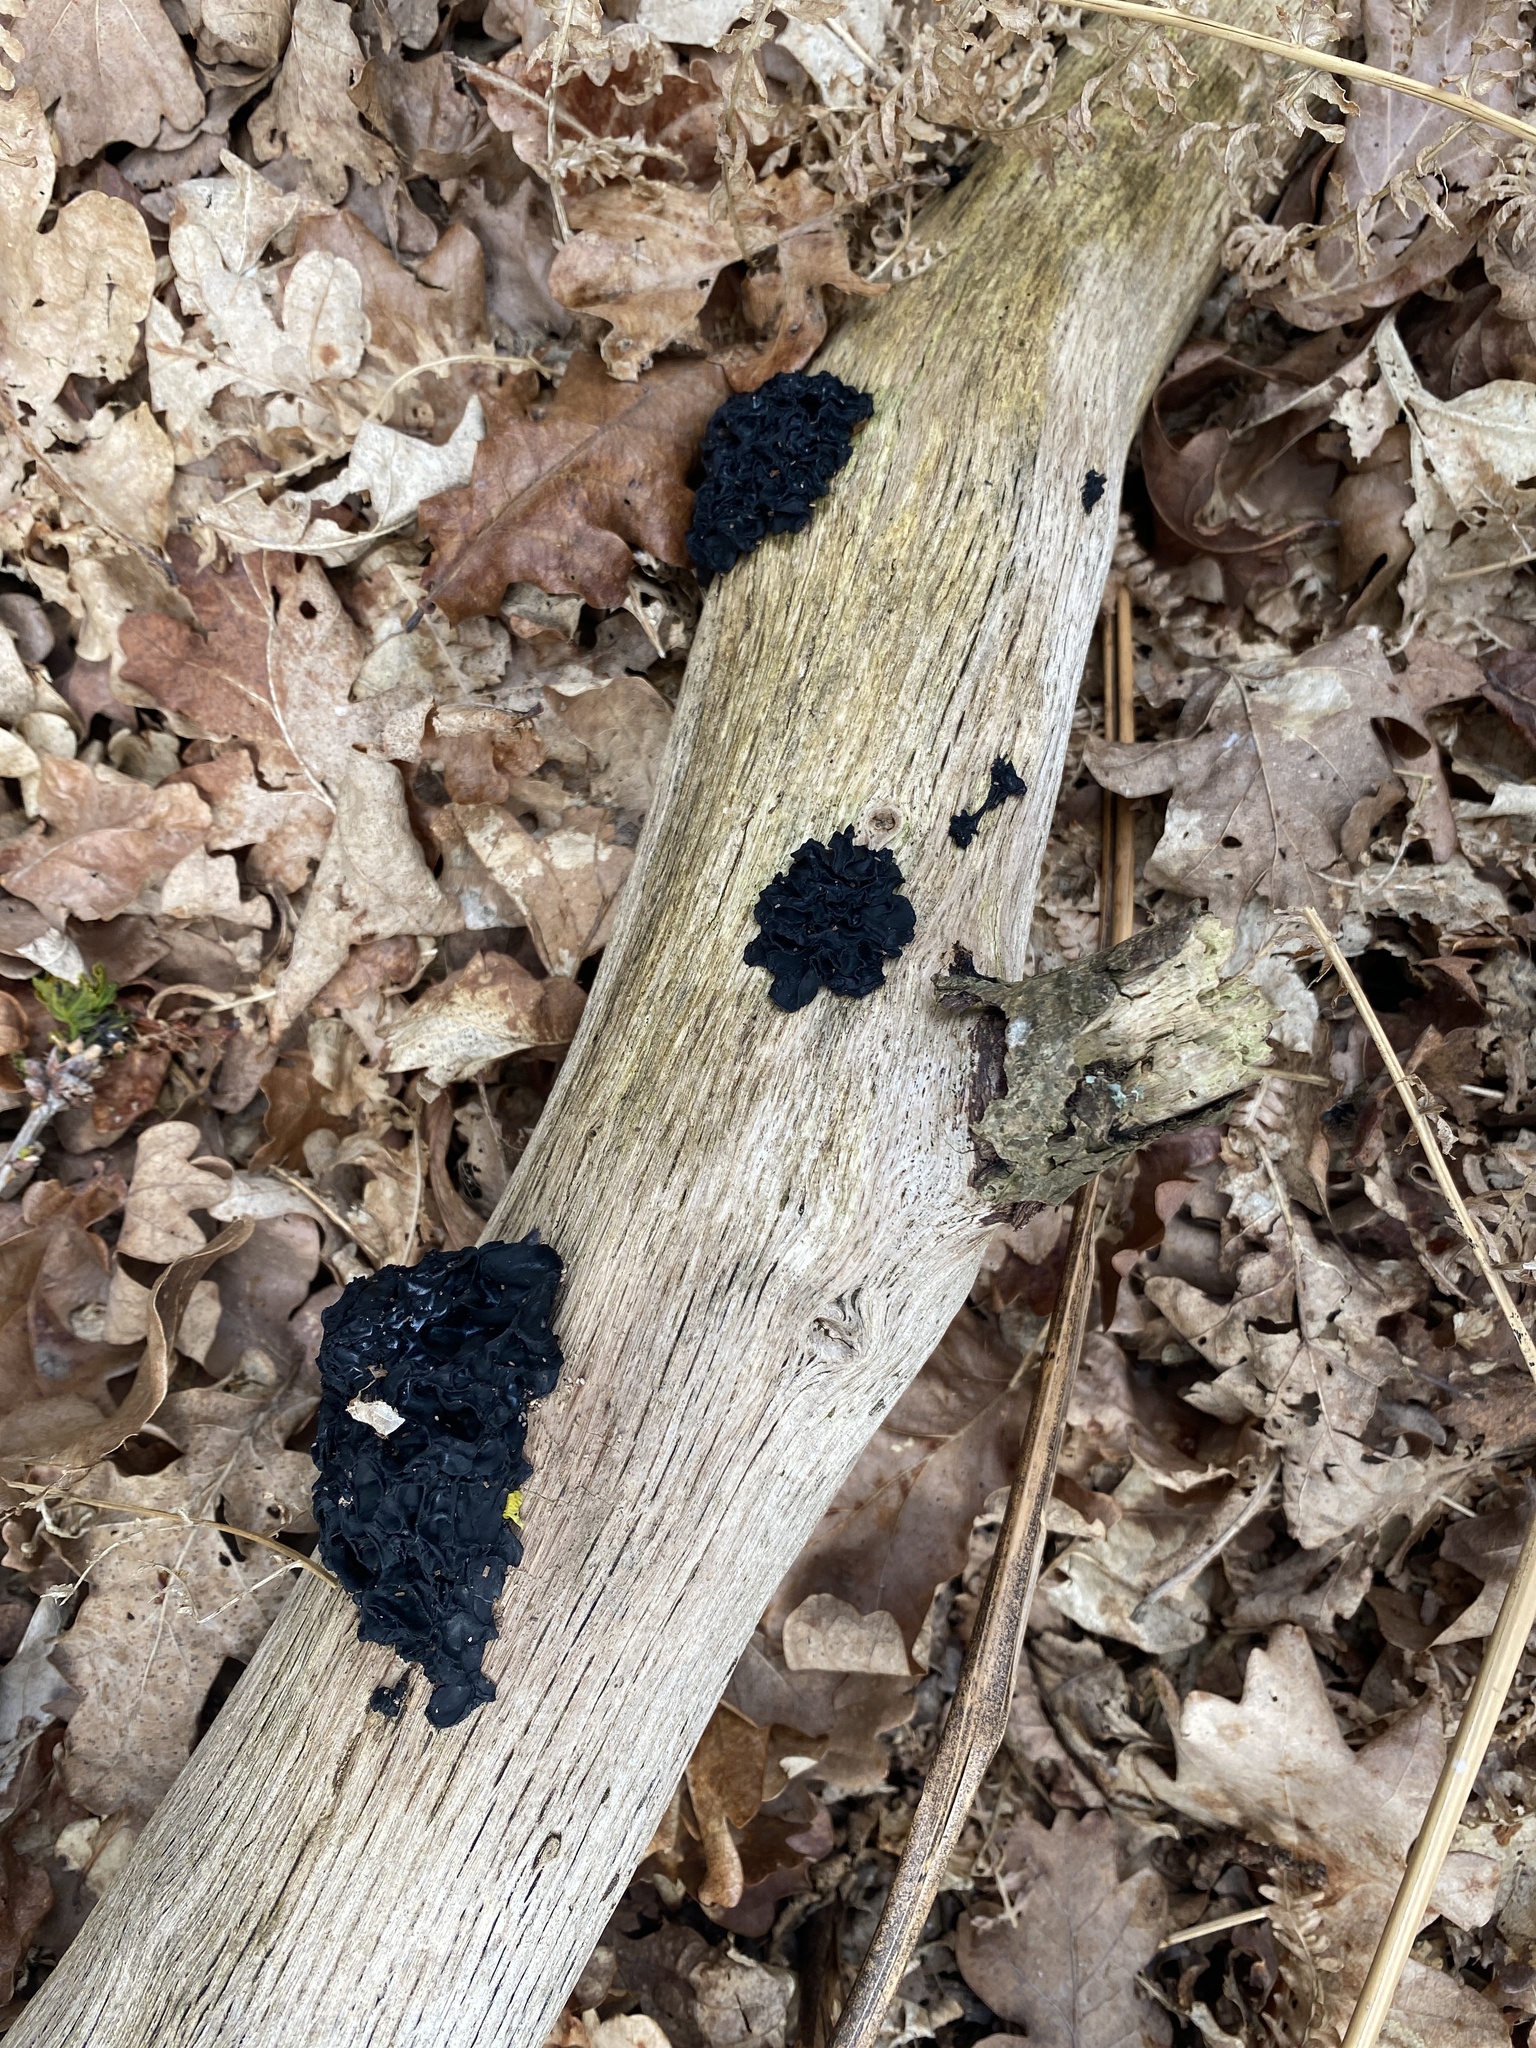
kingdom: Fungi
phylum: Basidiomycota
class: Agaricomycetes
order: Auriculariales
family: Auriculariaceae
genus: Exidia
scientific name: Exidia nigricans
